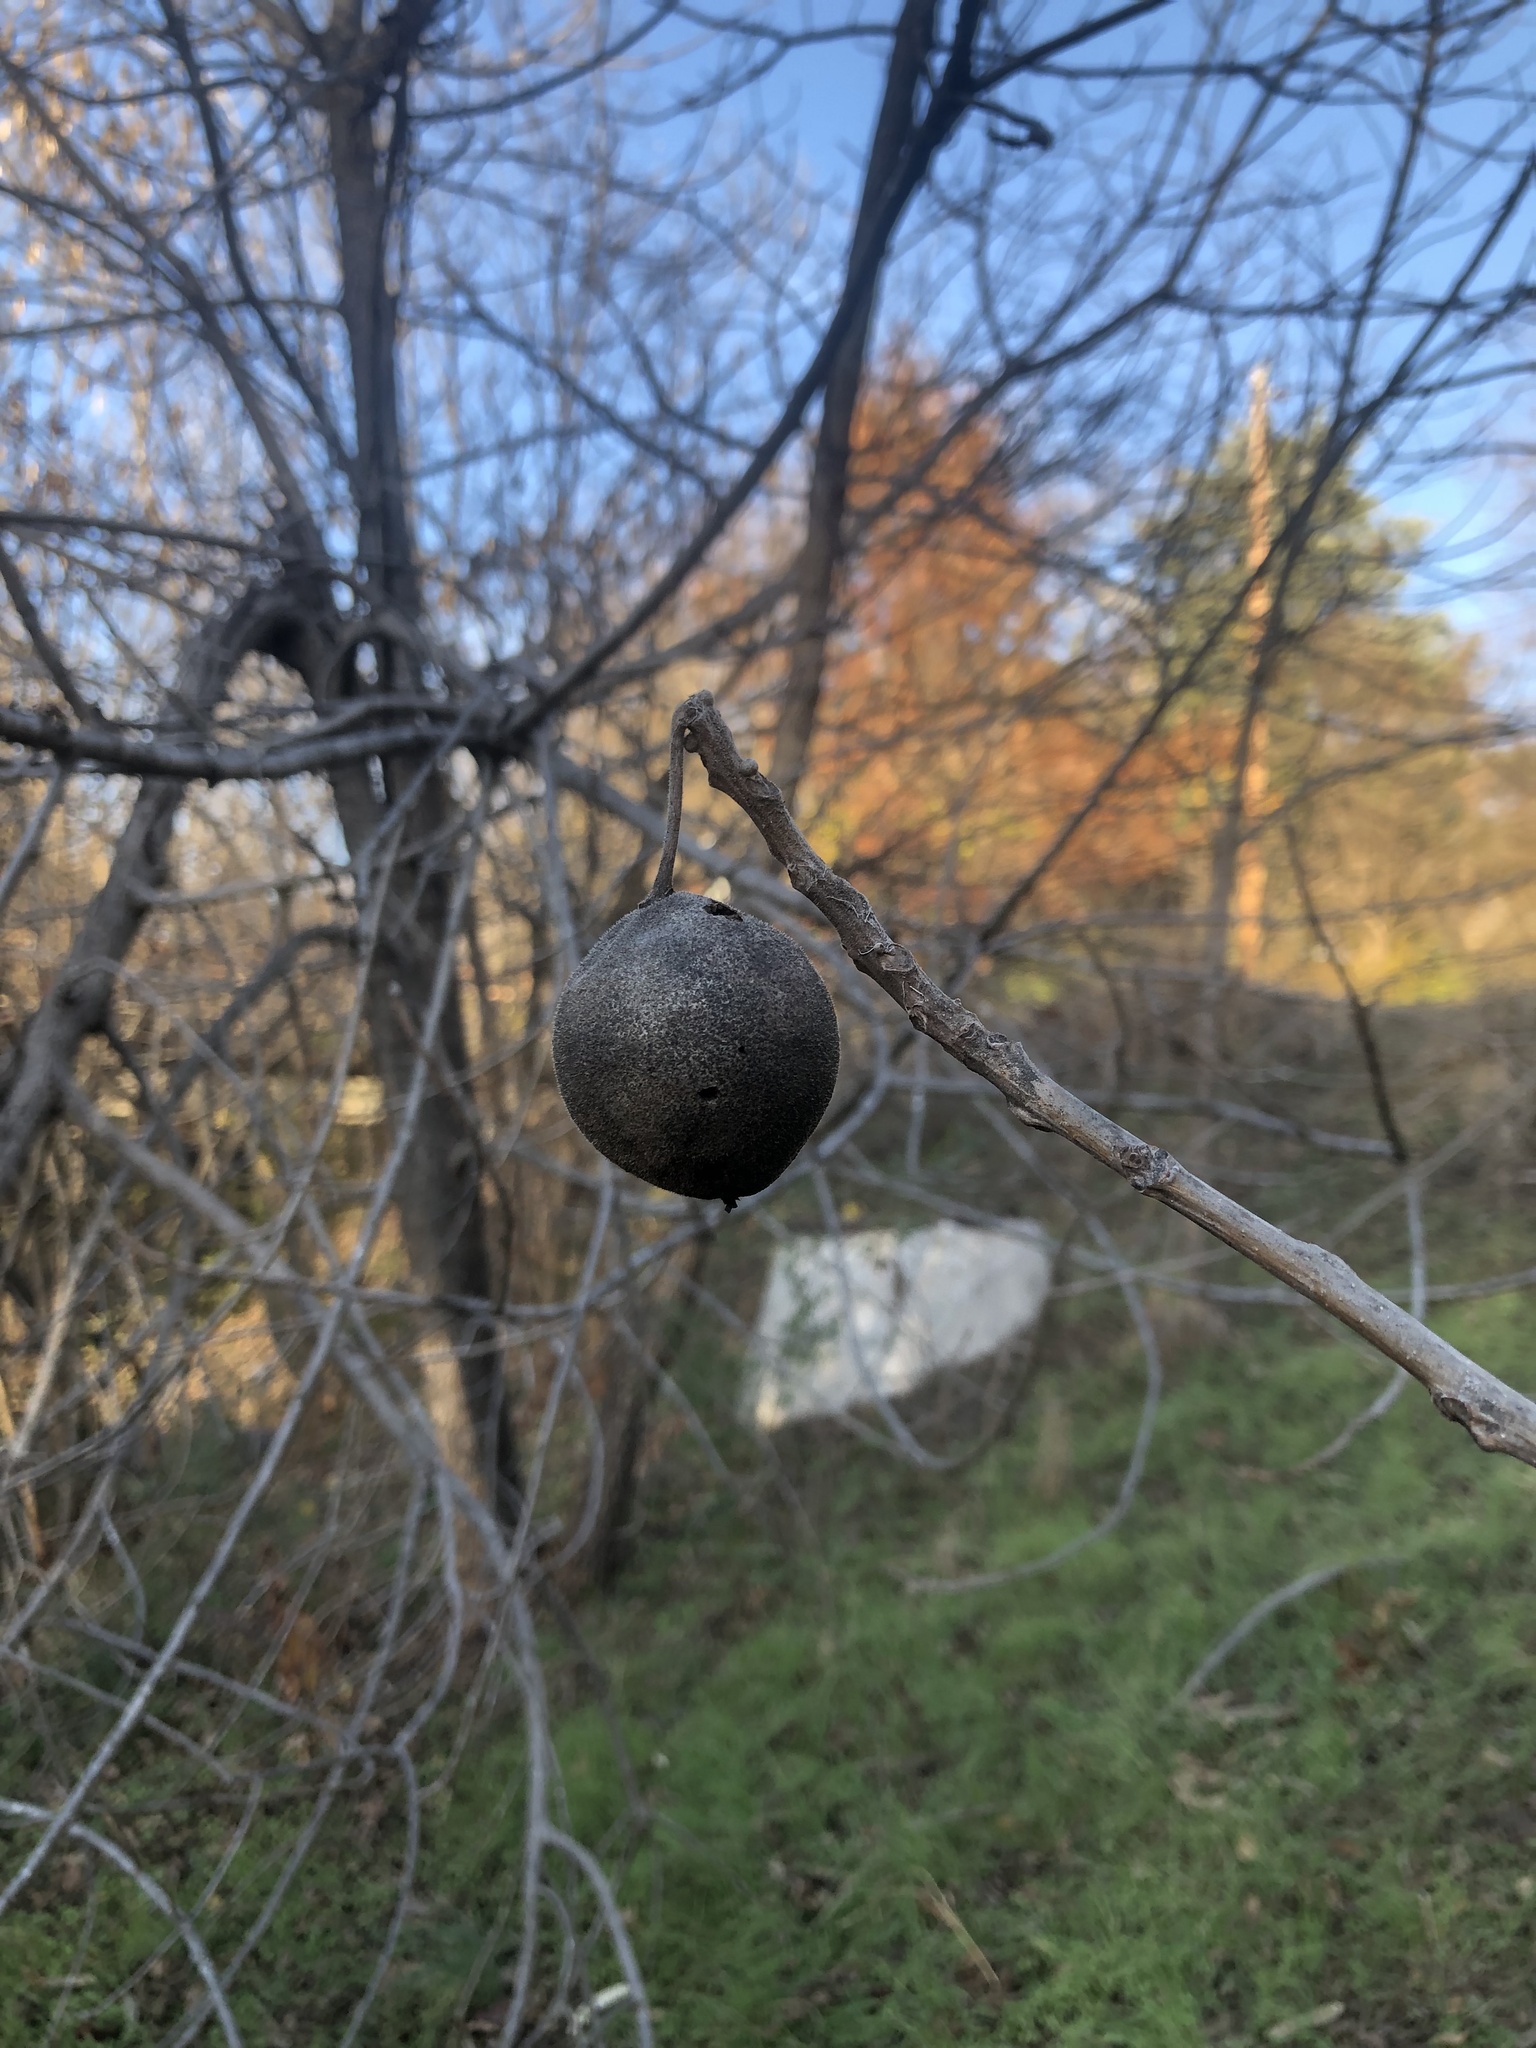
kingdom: Plantae
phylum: Tracheophyta
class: Magnoliopsida
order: Fagales
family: Juglandaceae
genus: Juglans
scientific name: Juglans nigra
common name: Black walnut
